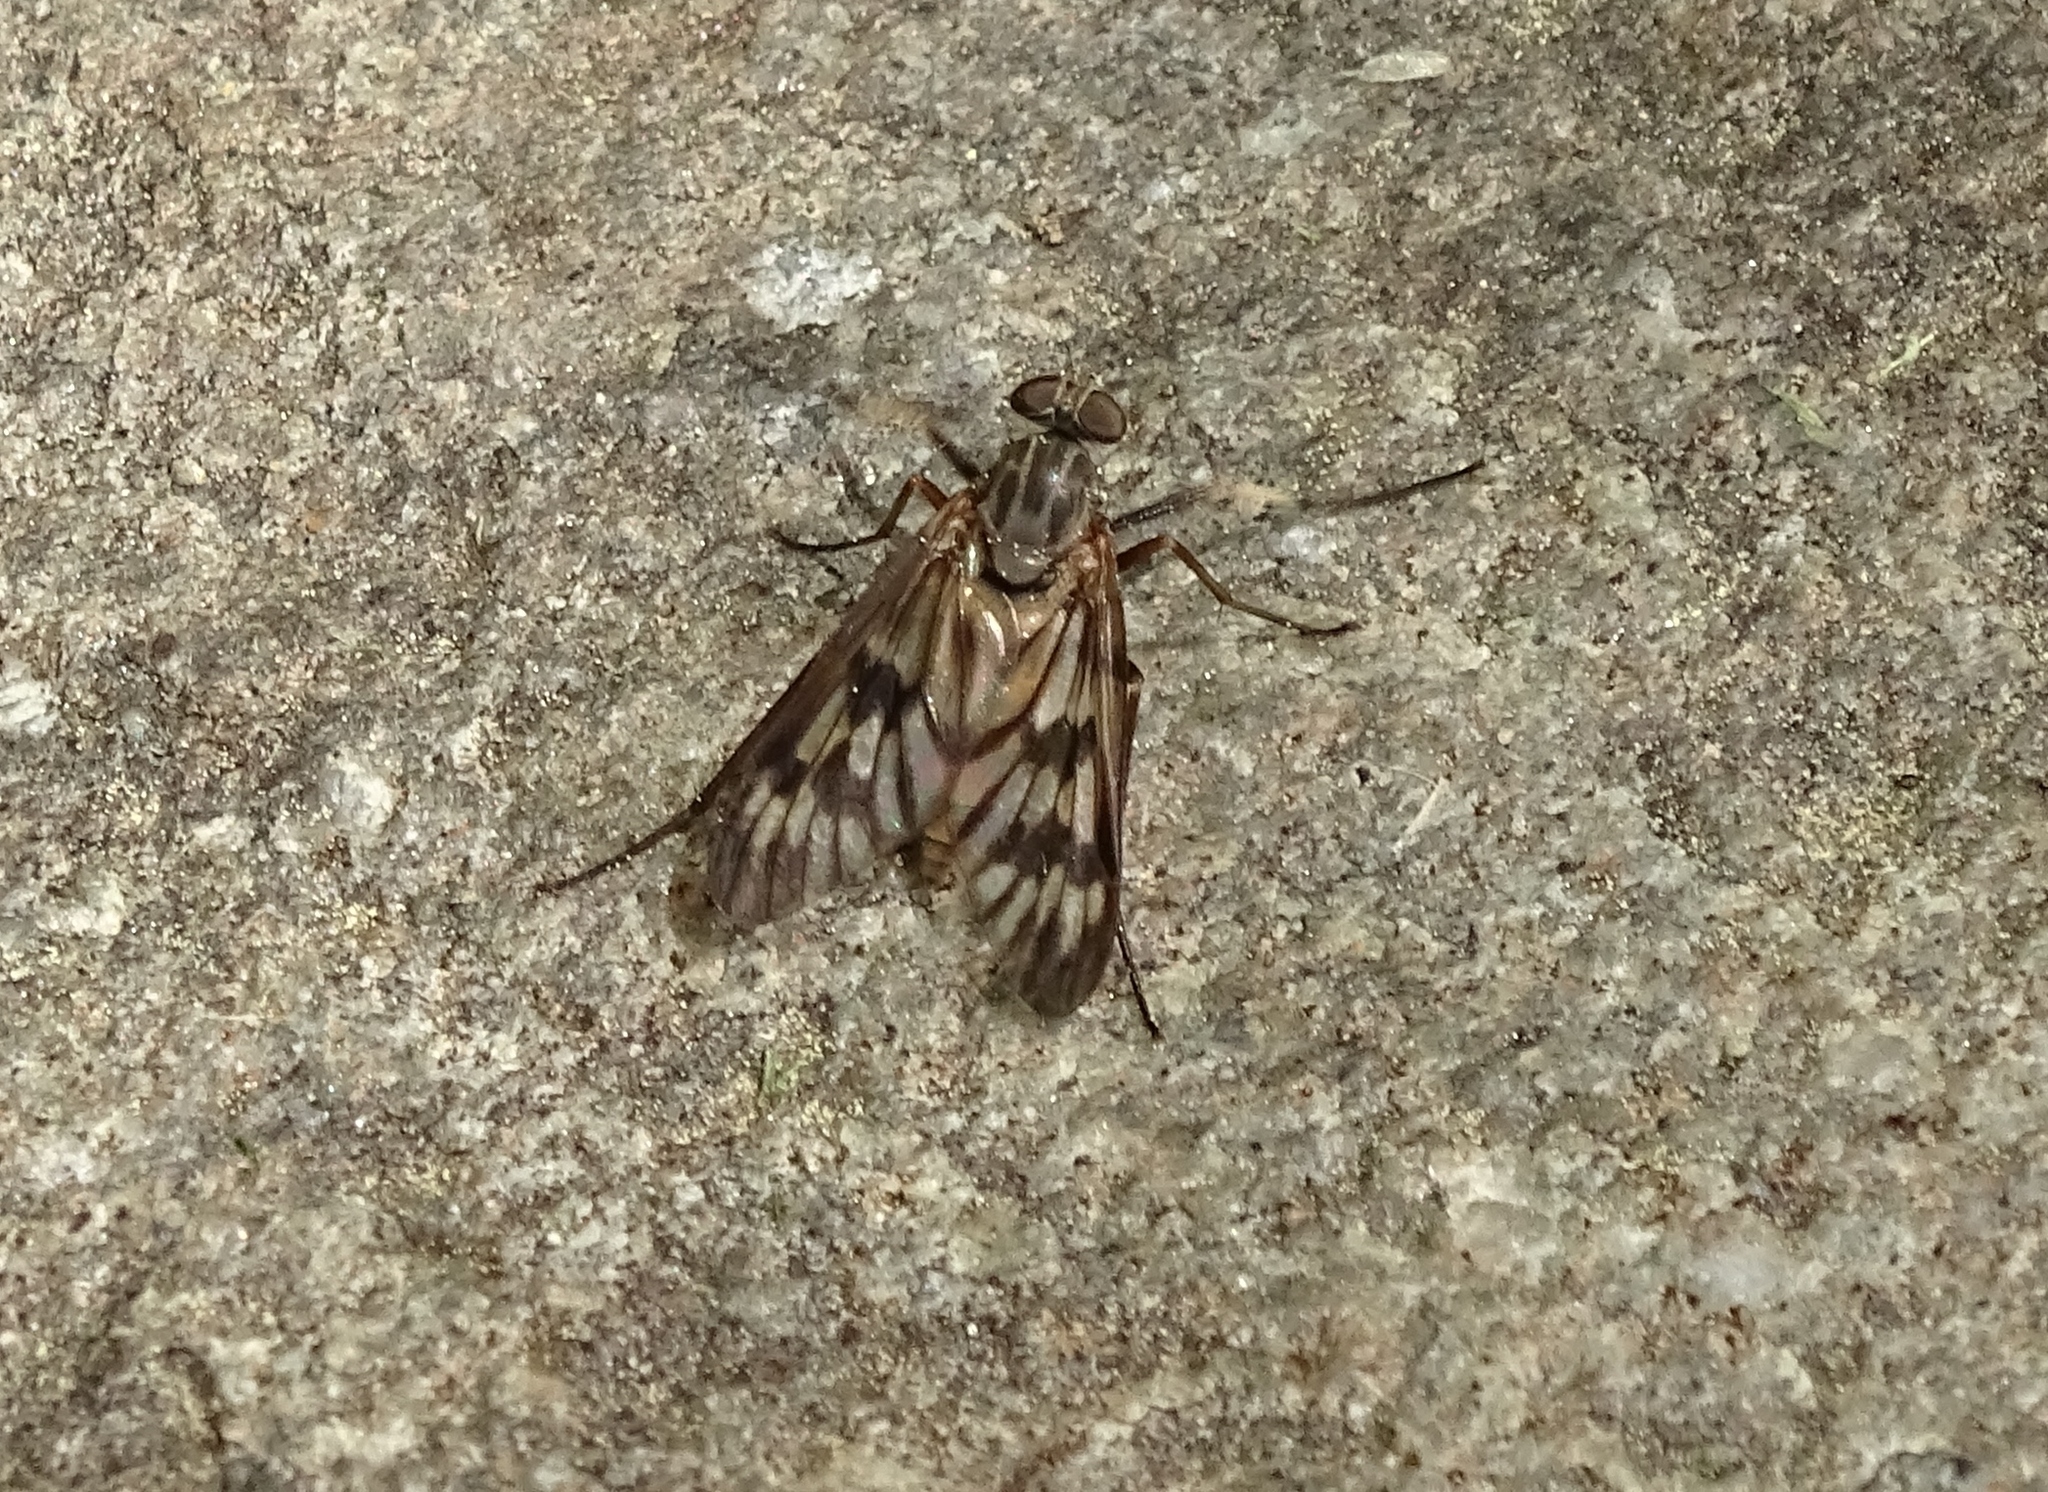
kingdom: Animalia
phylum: Arthropoda
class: Insecta
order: Diptera
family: Rhagionidae
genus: Rhagio
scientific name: Rhagio mystaceus
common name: Common snipe fly
